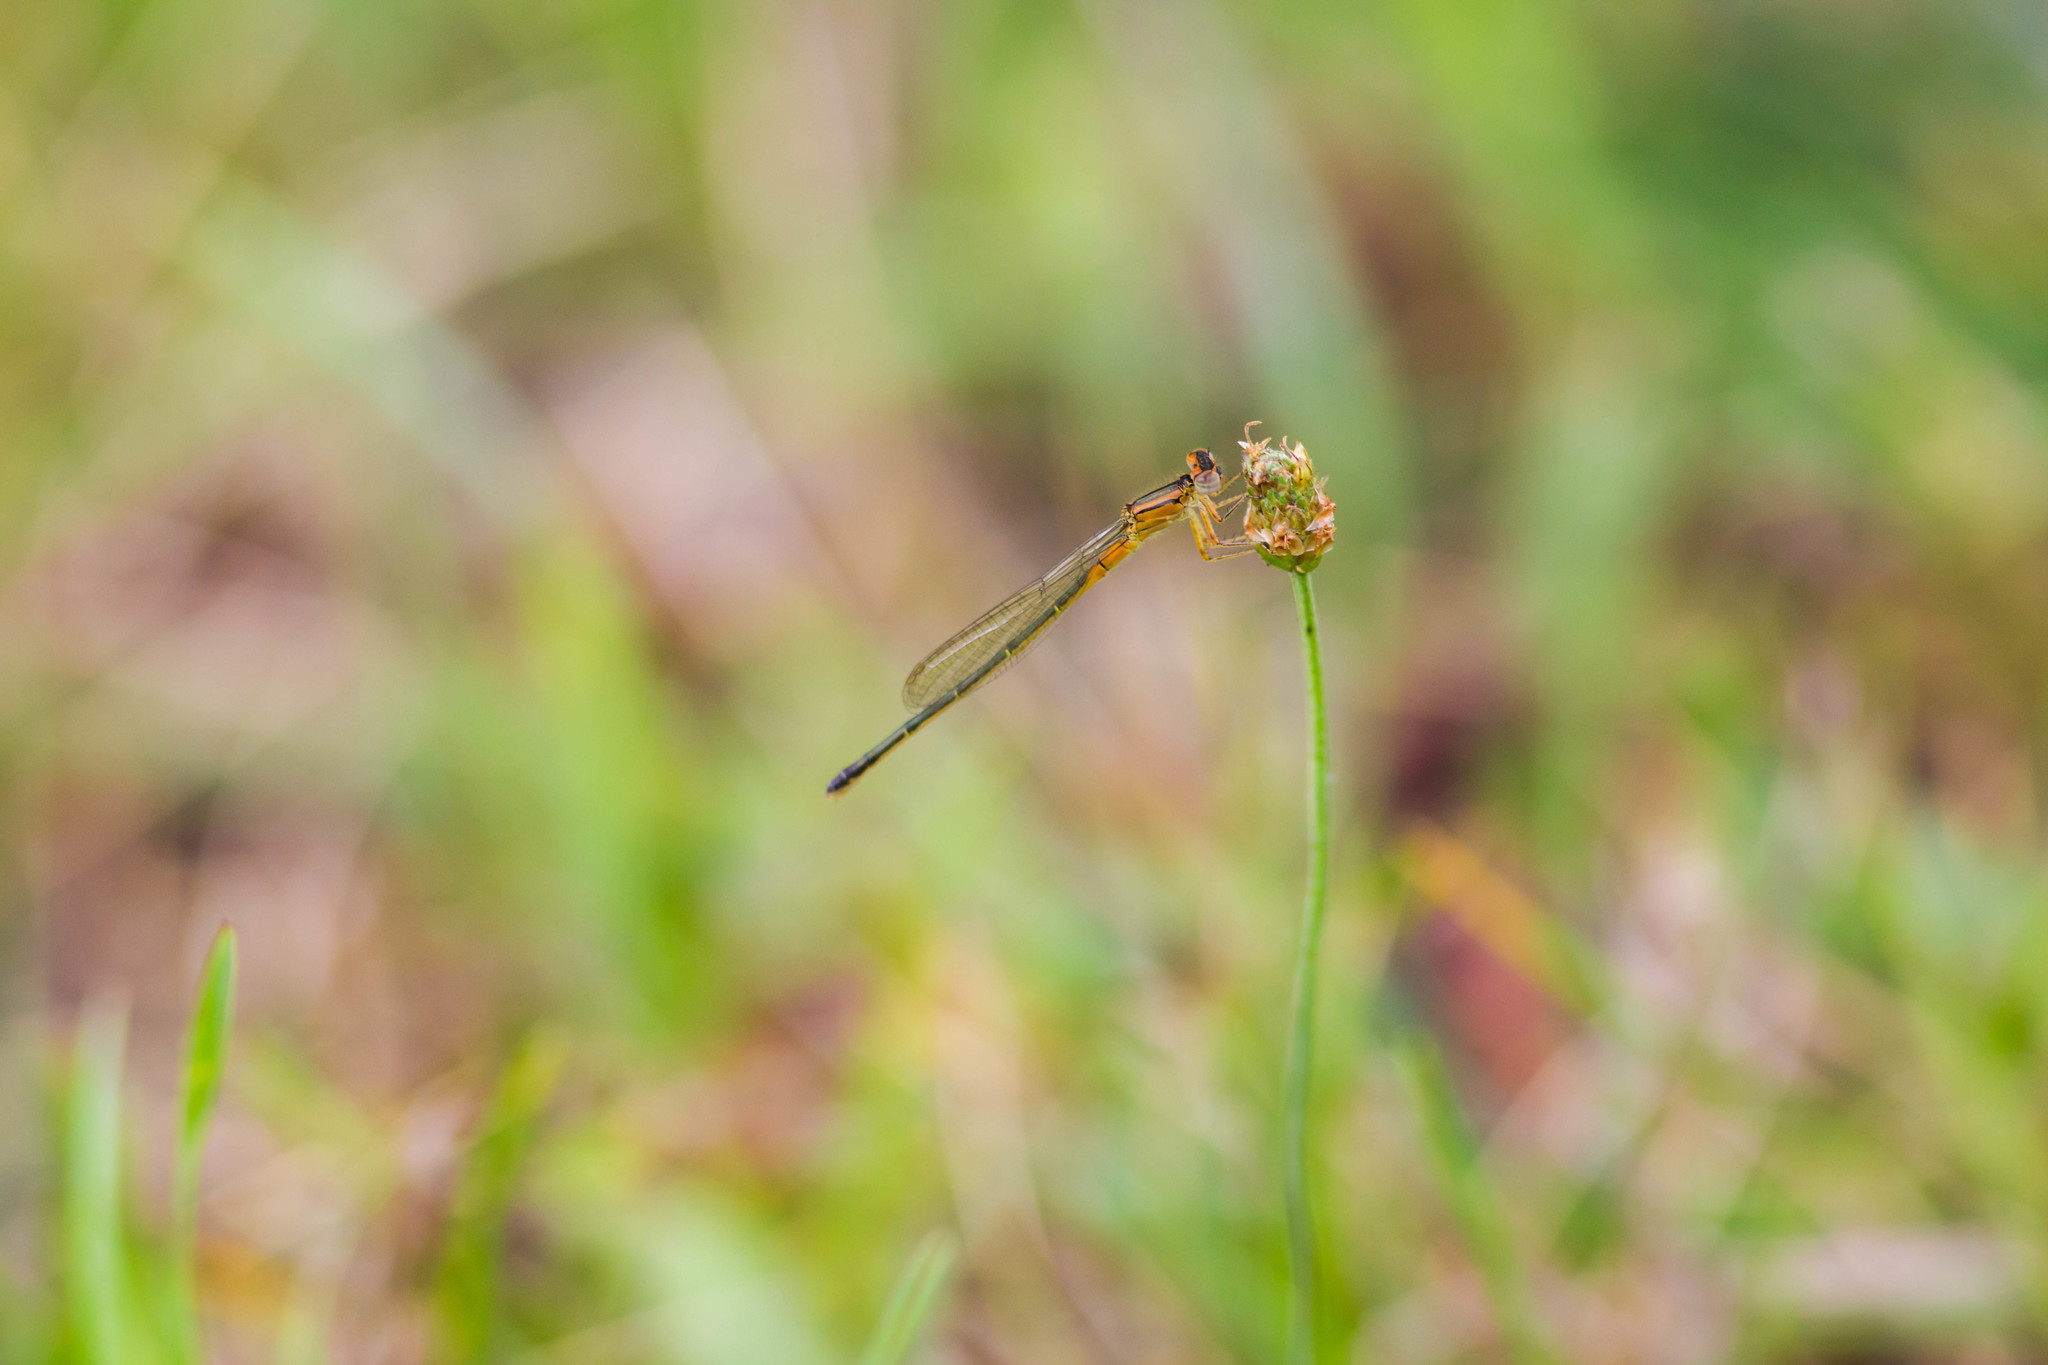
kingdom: Animalia
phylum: Arthropoda
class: Insecta
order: Odonata
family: Coenagrionidae
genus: Ischnura
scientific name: Ischnura verticalis
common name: Eastern forktail
